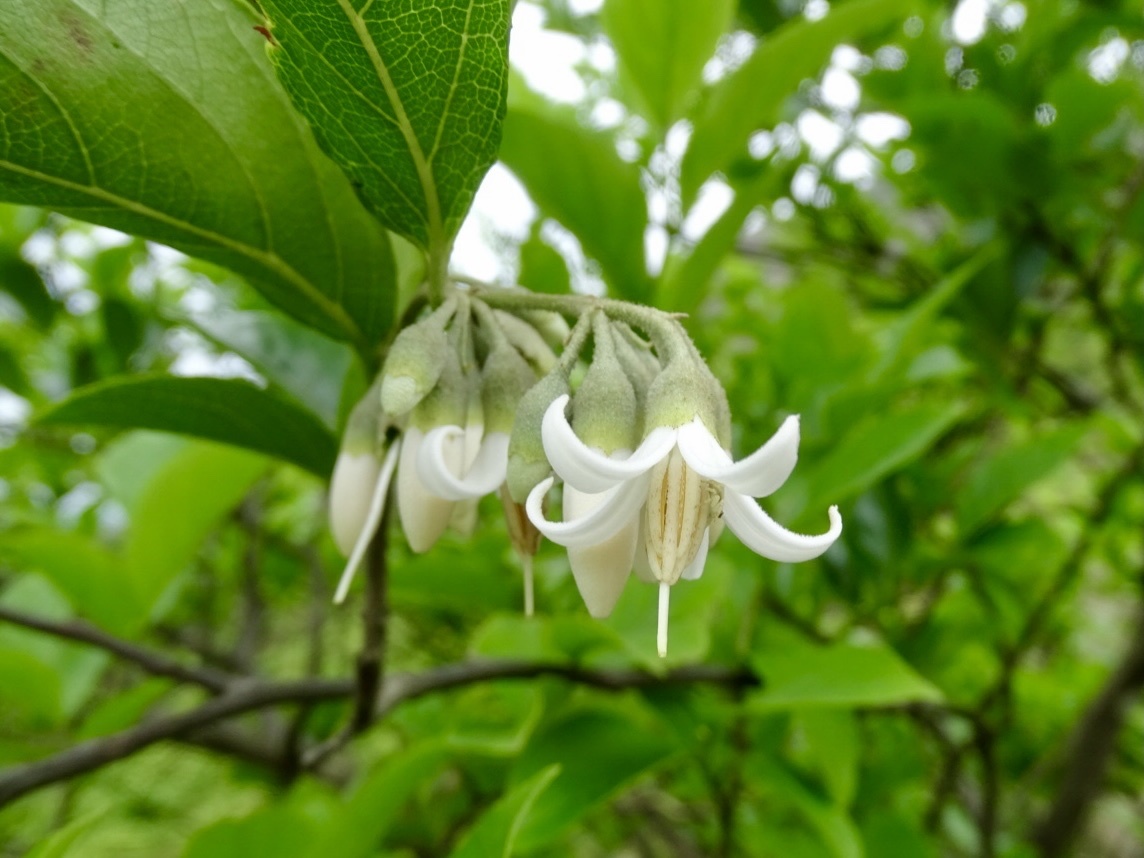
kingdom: Plantae
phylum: Tracheophyta
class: Magnoliopsida
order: Ericales
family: Styracaceae
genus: Styrax
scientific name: Styrax suberifolius
